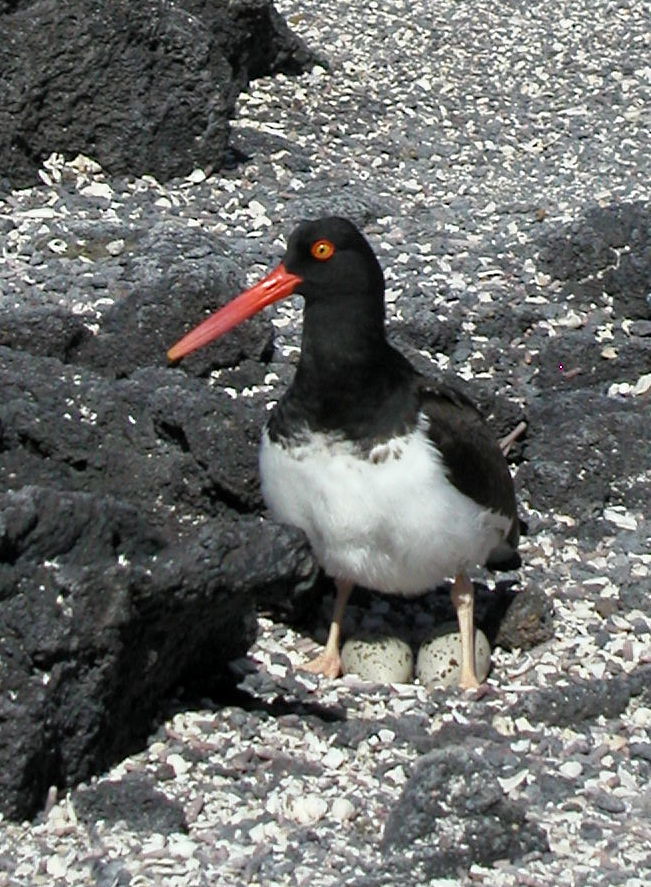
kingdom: Animalia
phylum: Chordata
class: Aves
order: Charadriiformes
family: Haematopodidae
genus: Haematopus
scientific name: Haematopus palliatus
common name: American oystercatcher
